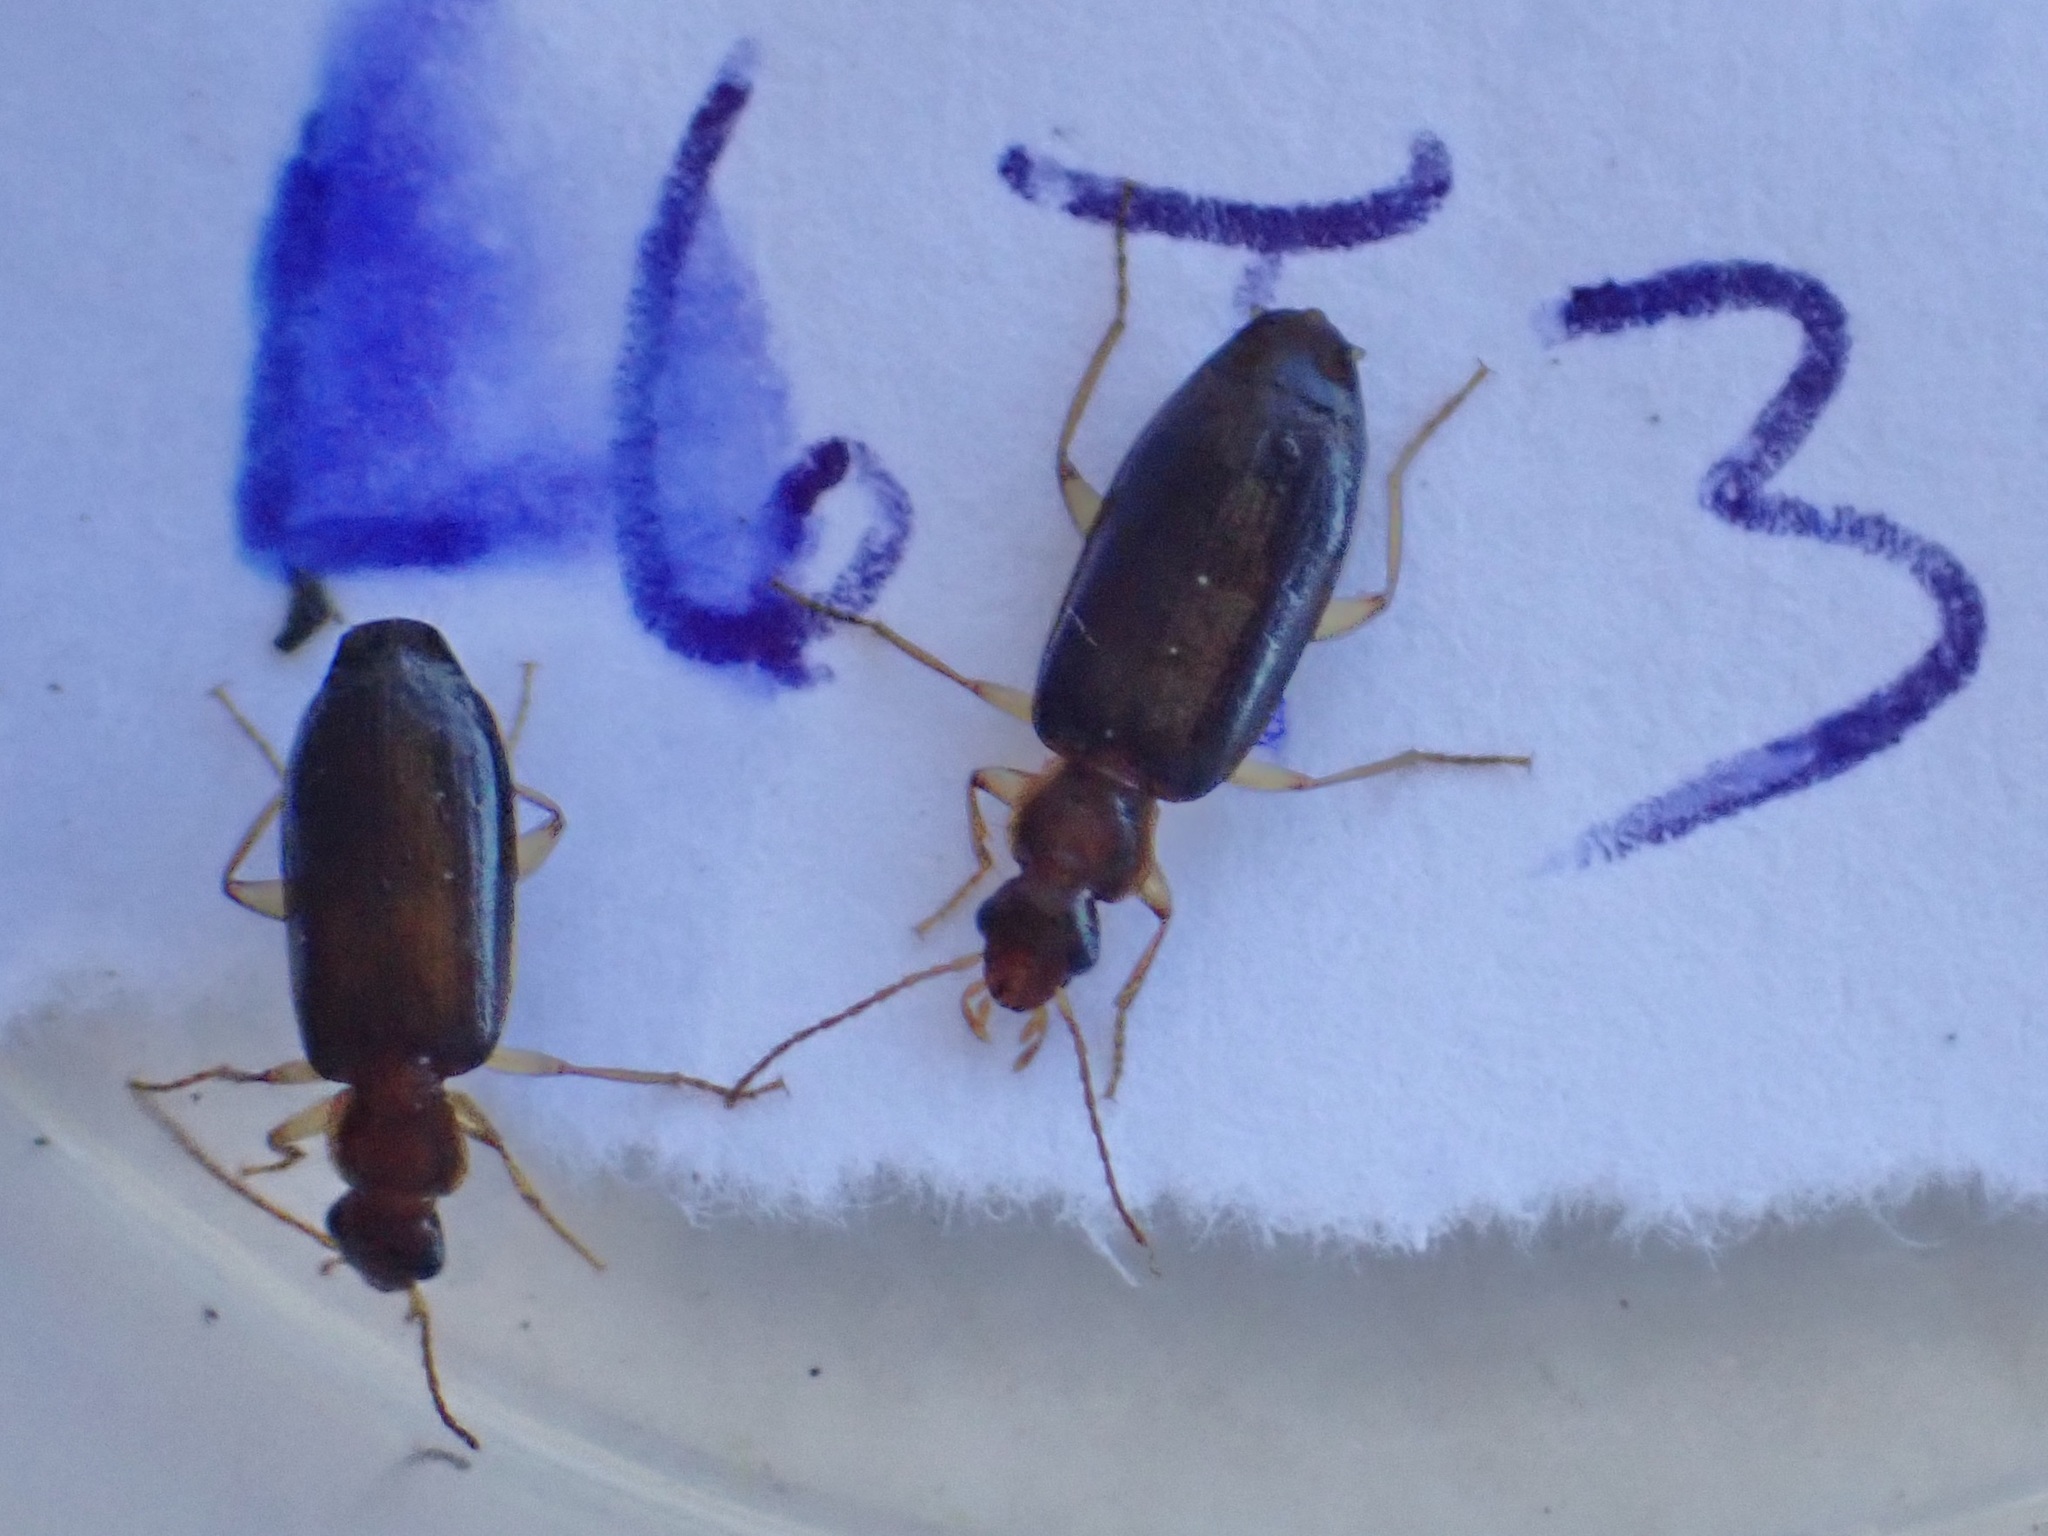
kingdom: Animalia
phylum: Arthropoda
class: Insecta
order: Coleoptera
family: Carabidae
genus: Dromius
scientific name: Dromius meridionalis
